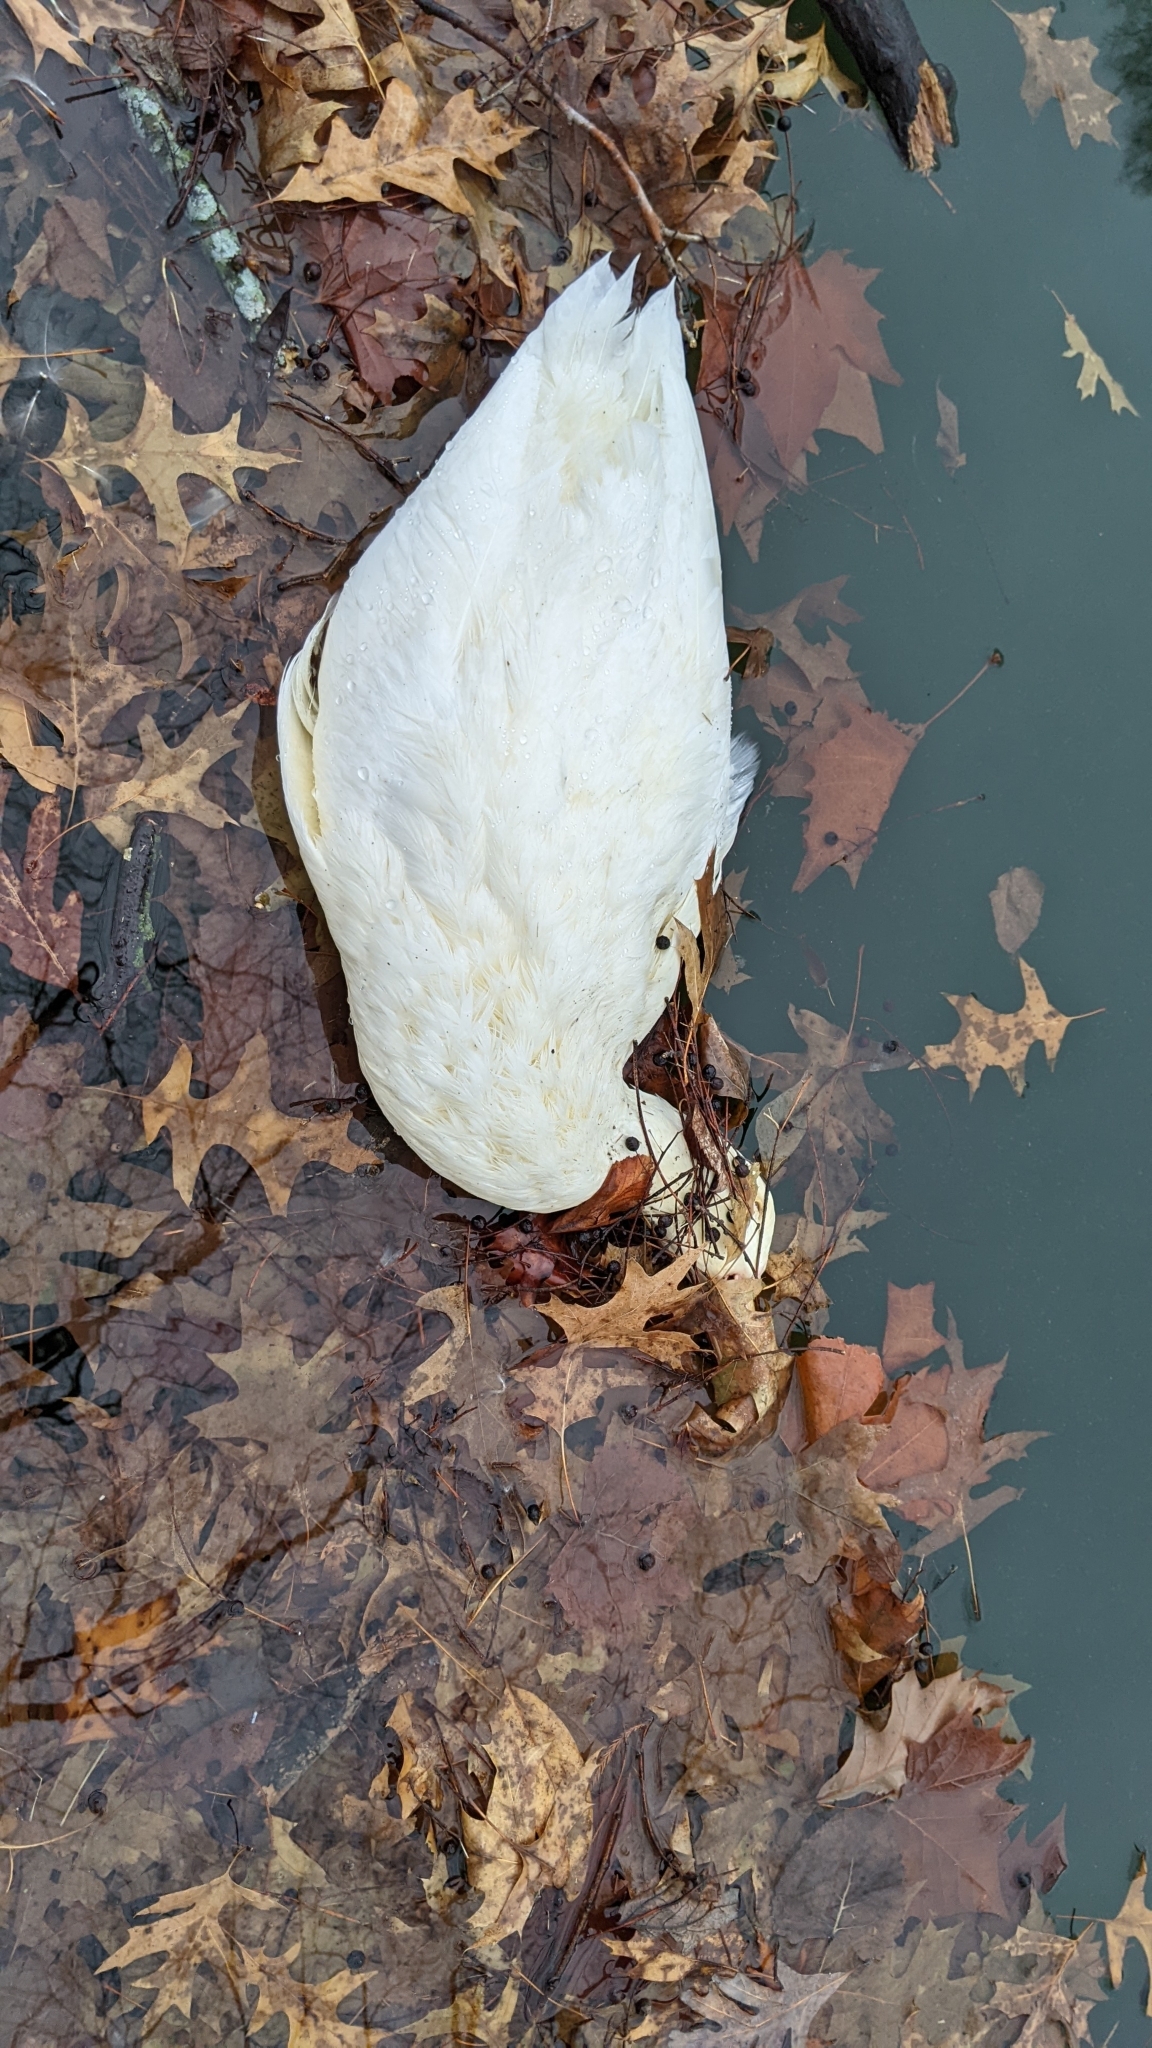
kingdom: Animalia
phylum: Chordata
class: Aves
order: Anseriformes
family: Anatidae
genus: Anas
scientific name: Anas platyrhynchos
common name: Mallard
